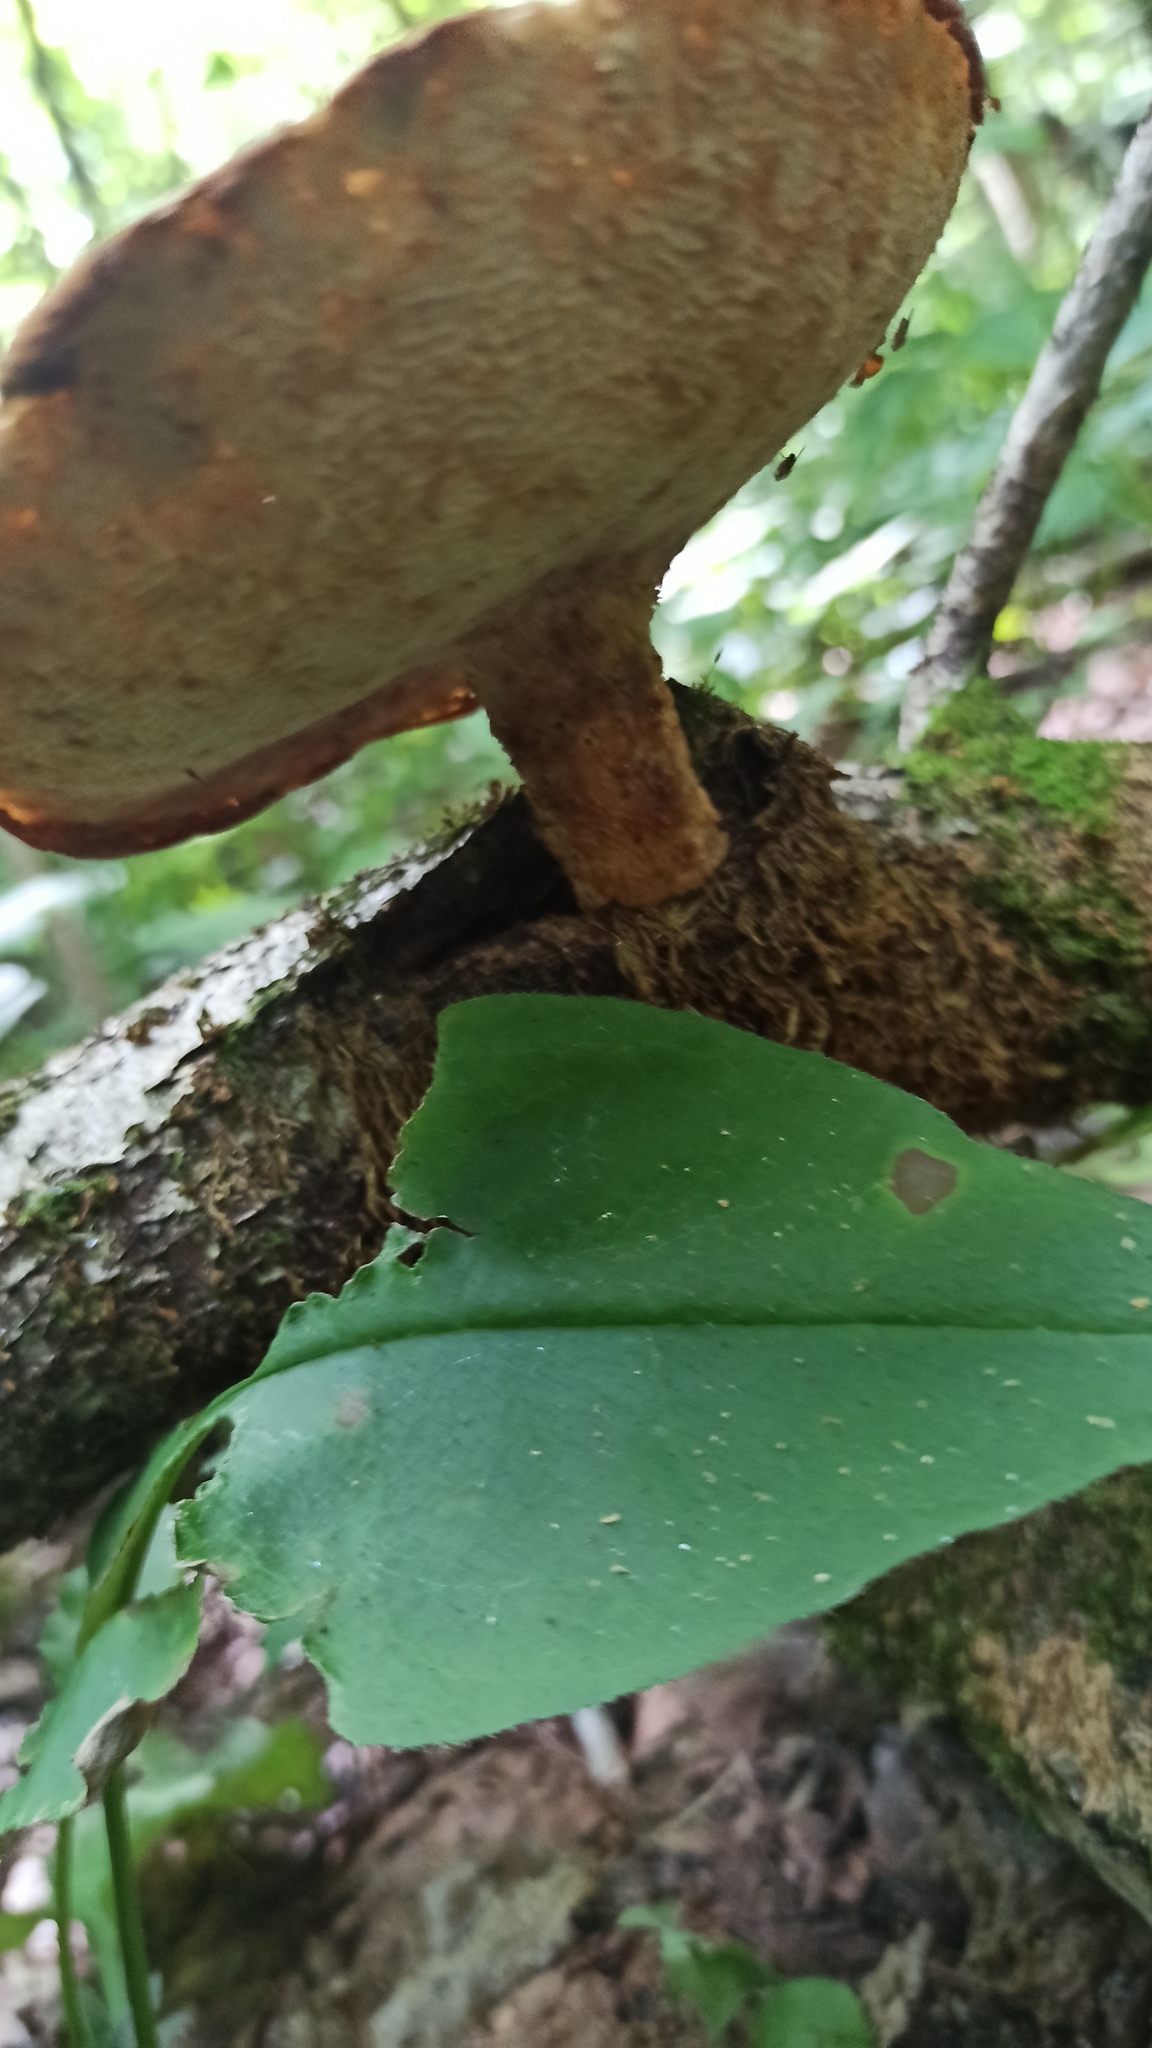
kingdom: Fungi
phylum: Basidiomycota
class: Agaricomycetes
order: Polyporales
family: Polyporaceae
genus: Polyporus
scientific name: Polyporus tuberaster
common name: Tuberous polypore
